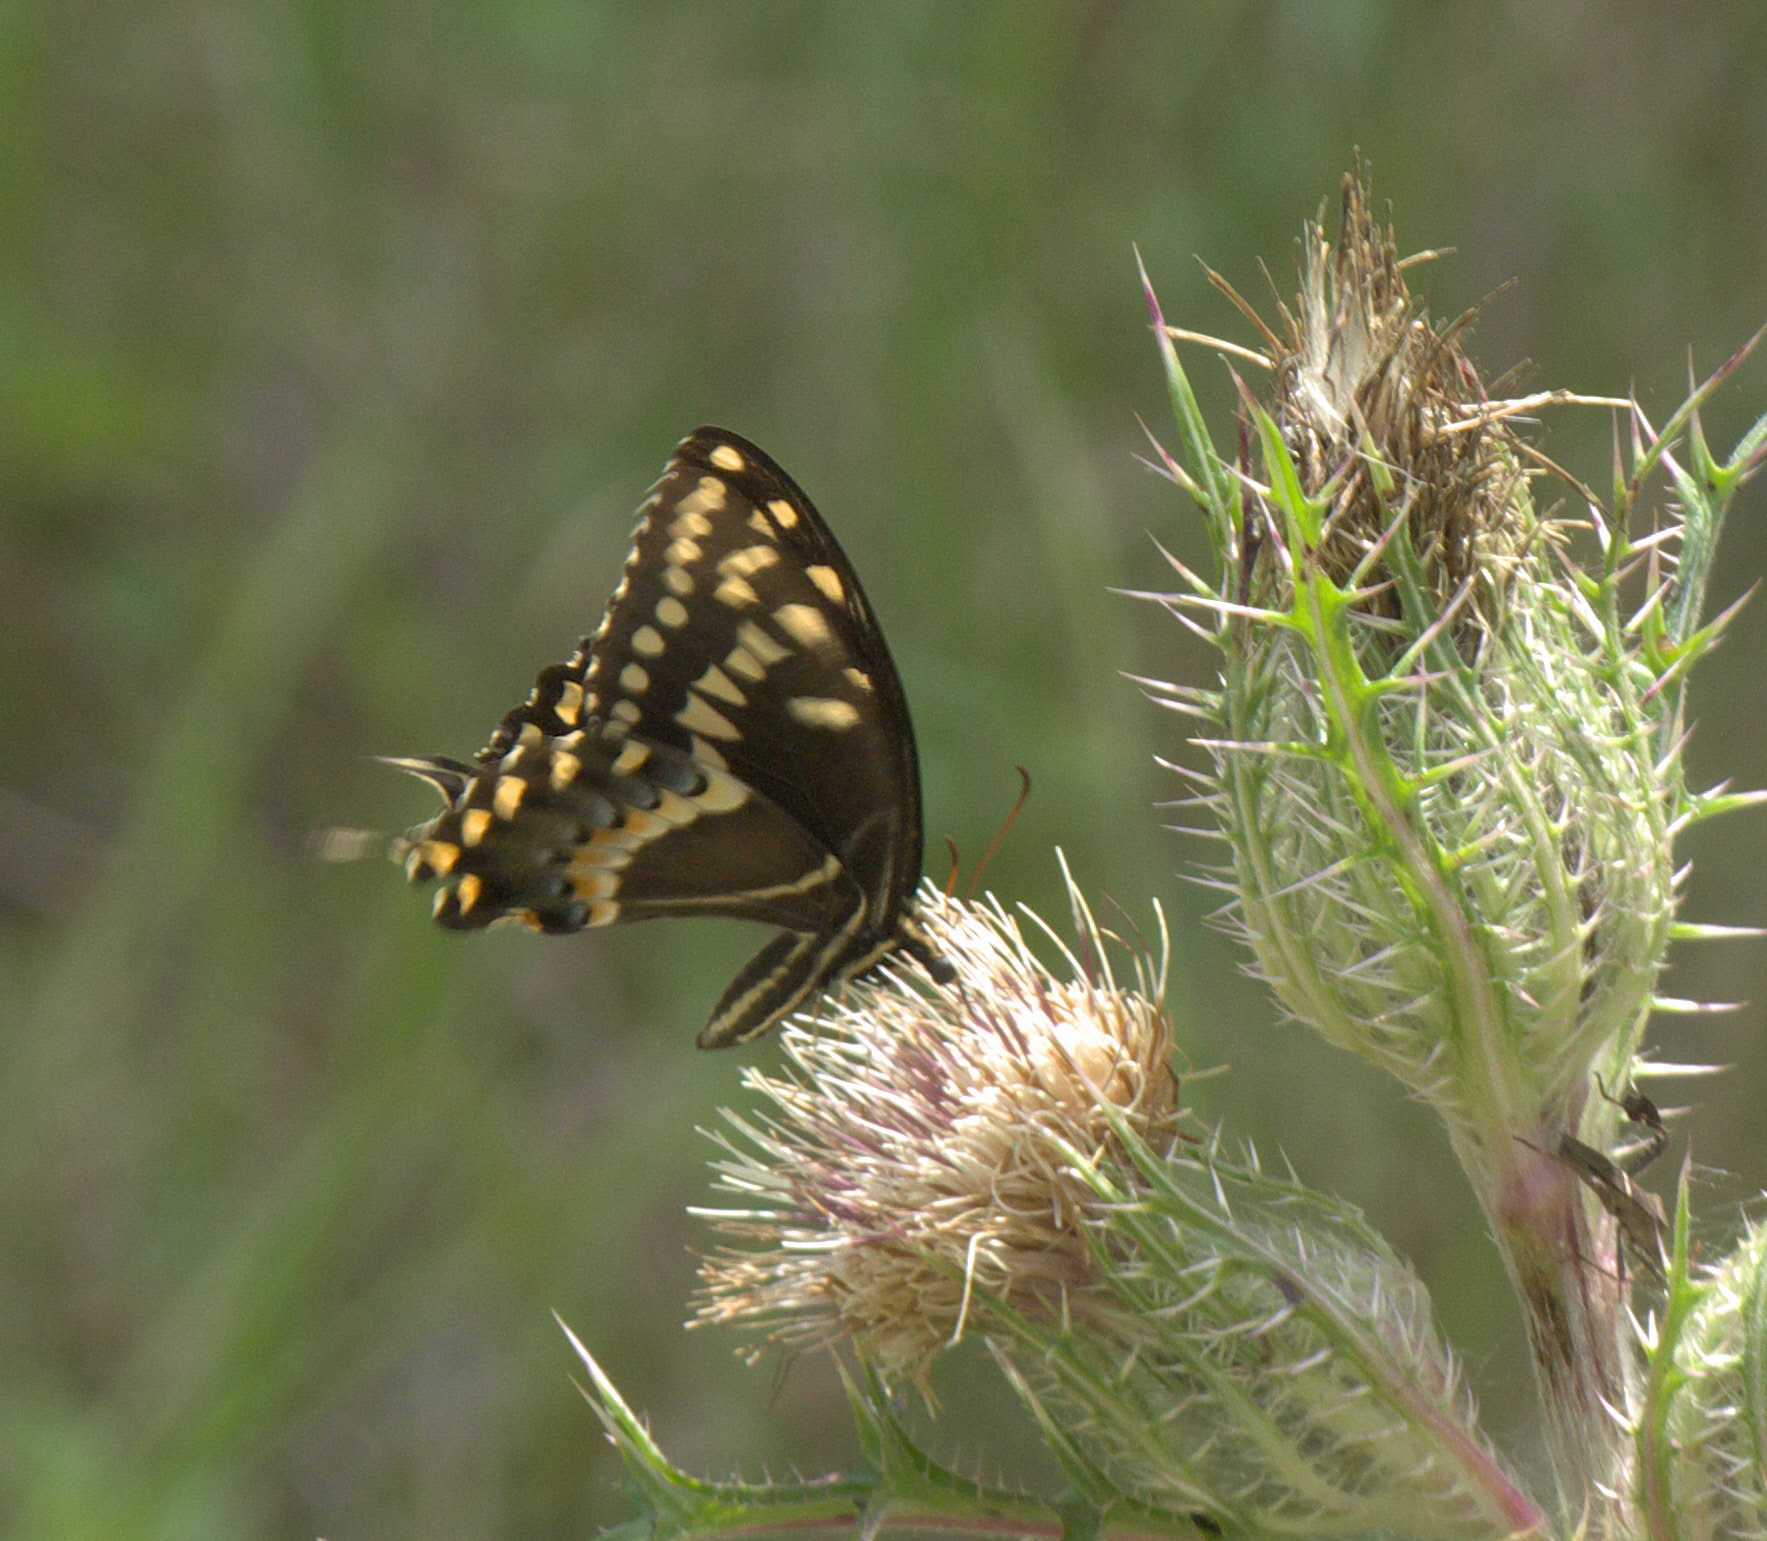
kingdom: Animalia
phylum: Arthropoda
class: Insecta
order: Lepidoptera
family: Papilionidae
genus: Papilio
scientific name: Papilio palamedes
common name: Palamedes swallowtail
